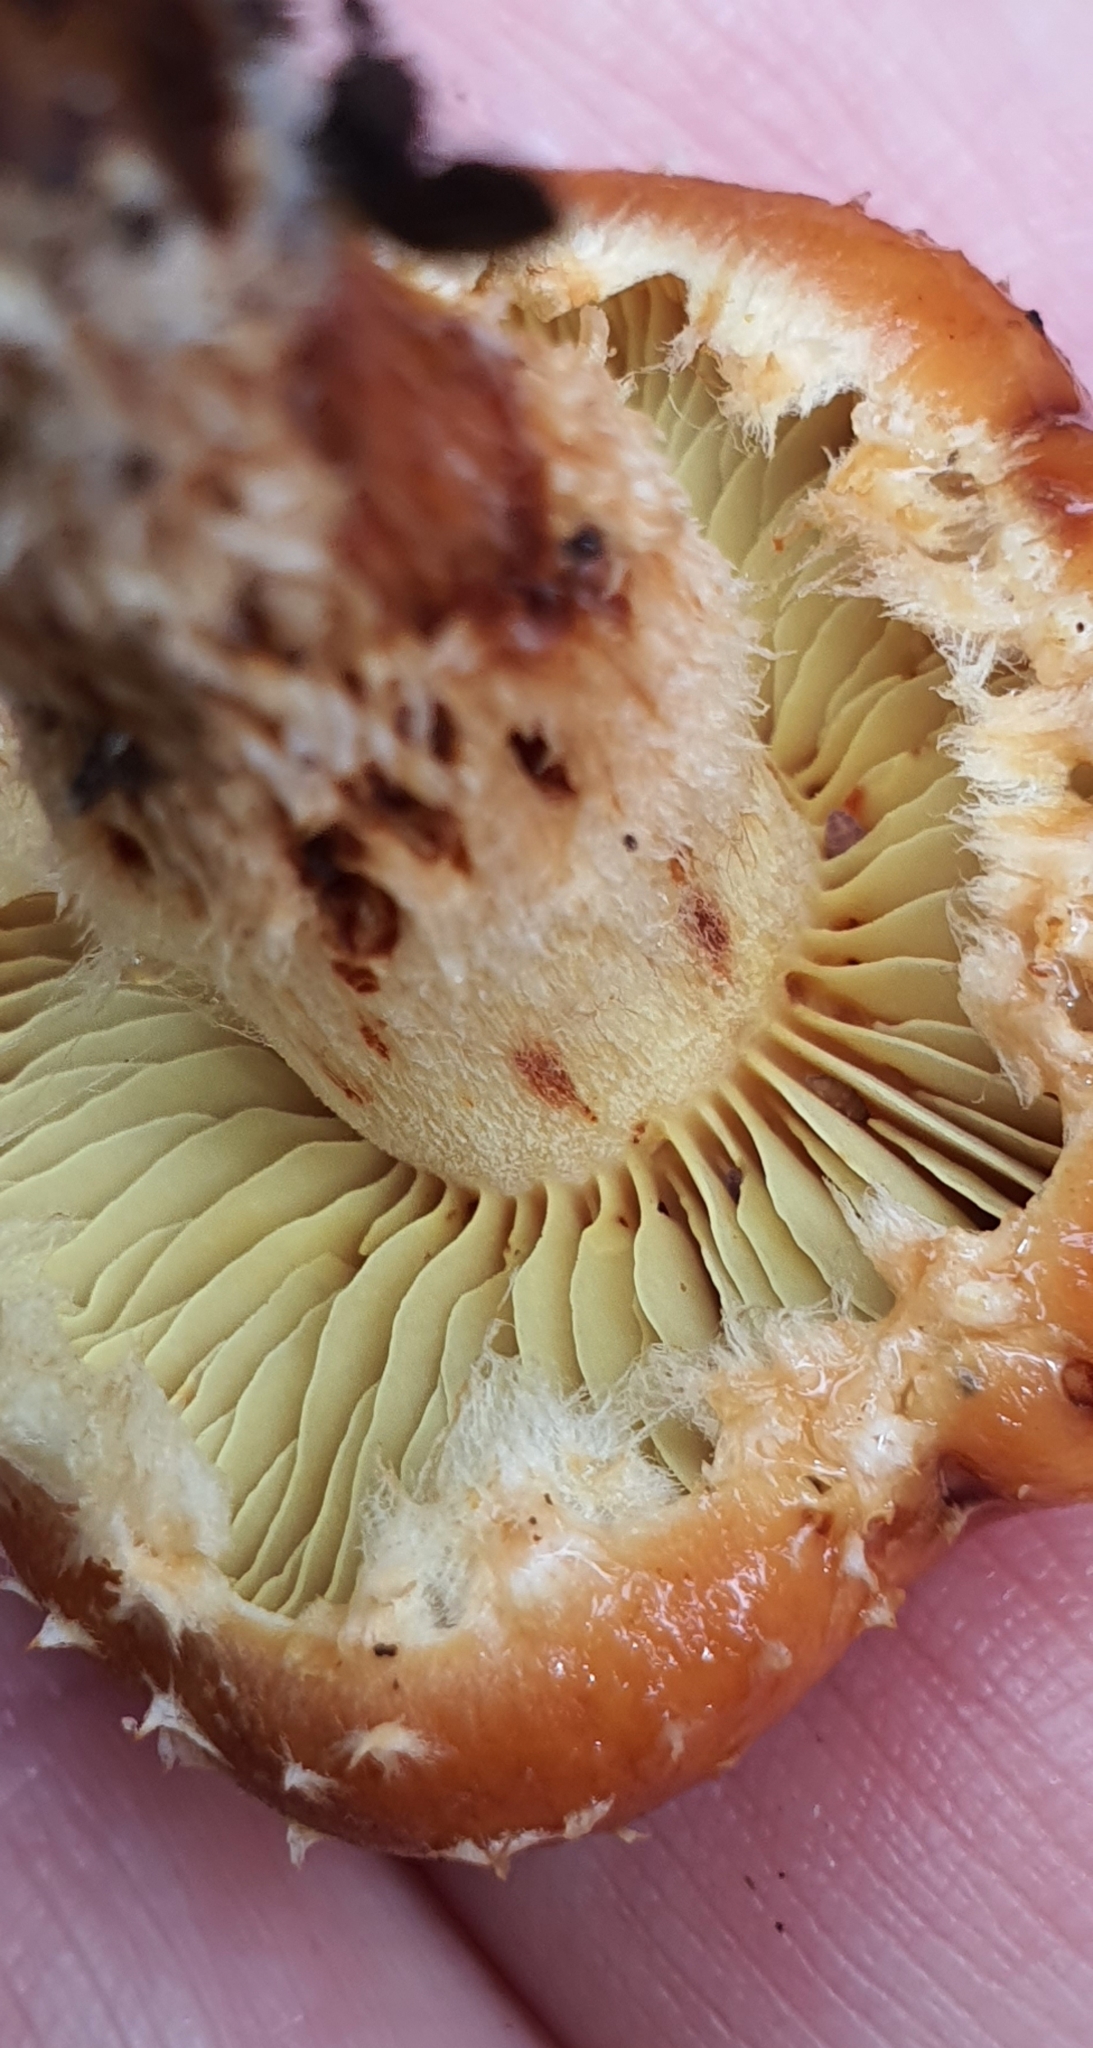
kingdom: Fungi
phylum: Basidiomycota
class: Agaricomycetes
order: Agaricales
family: Strophariaceae
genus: Hypholoma
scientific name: Hypholoma australianum
